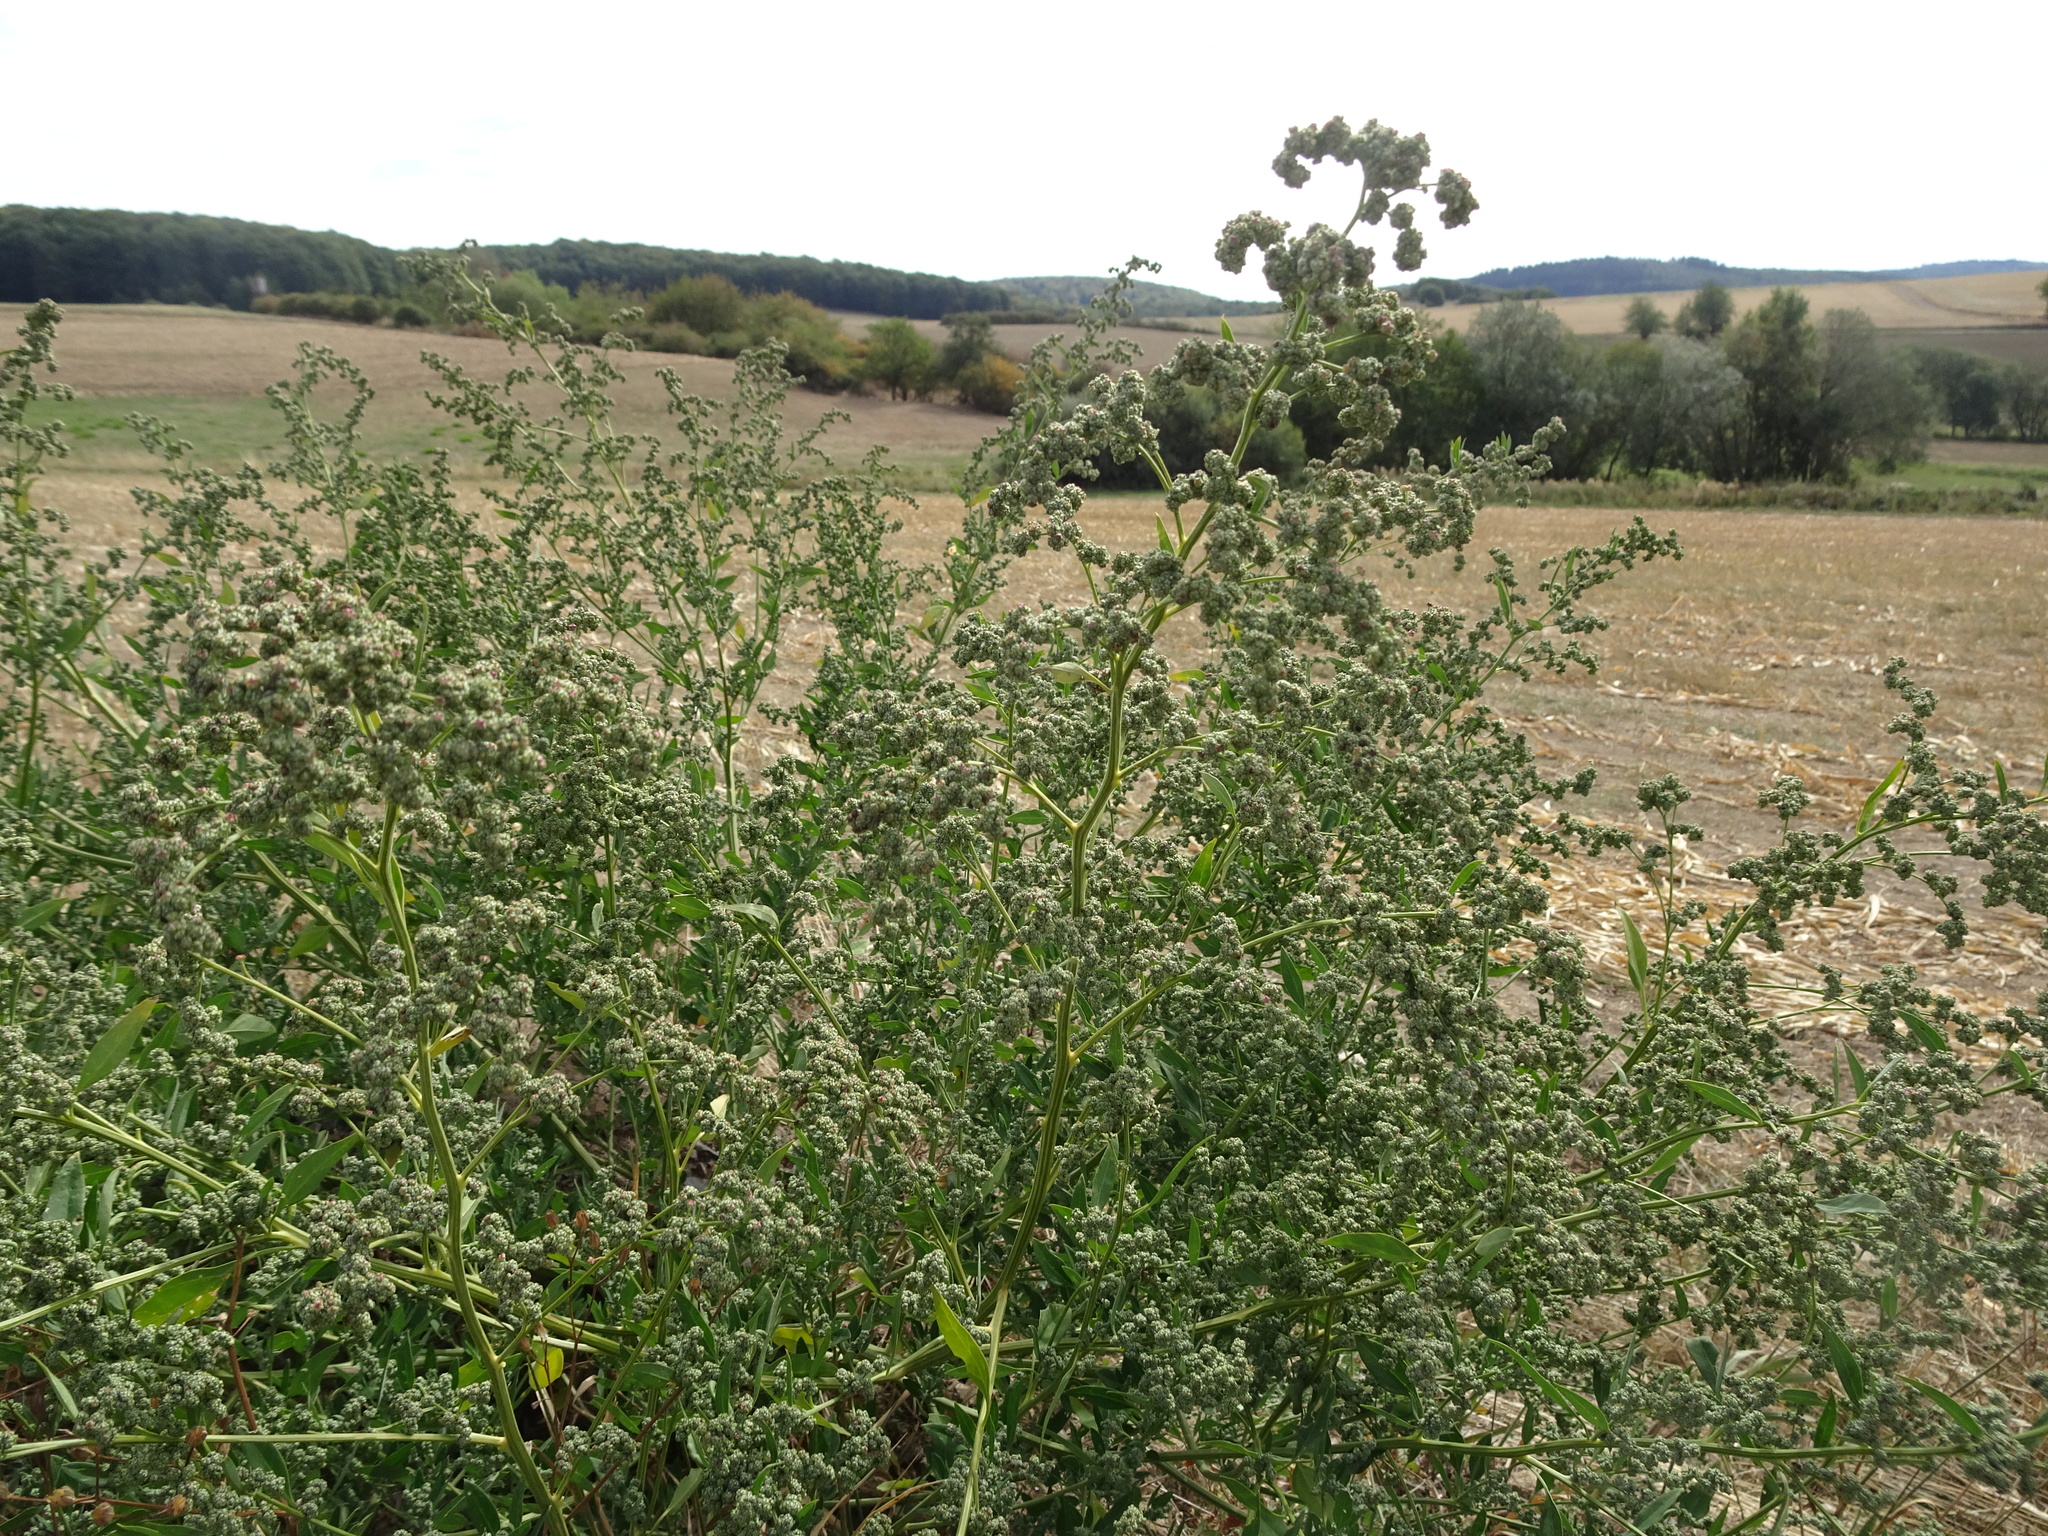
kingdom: Plantae
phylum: Tracheophyta
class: Magnoliopsida
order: Caryophyllales
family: Amaranthaceae
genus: Chenopodium
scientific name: Chenopodium album
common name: Fat-hen
